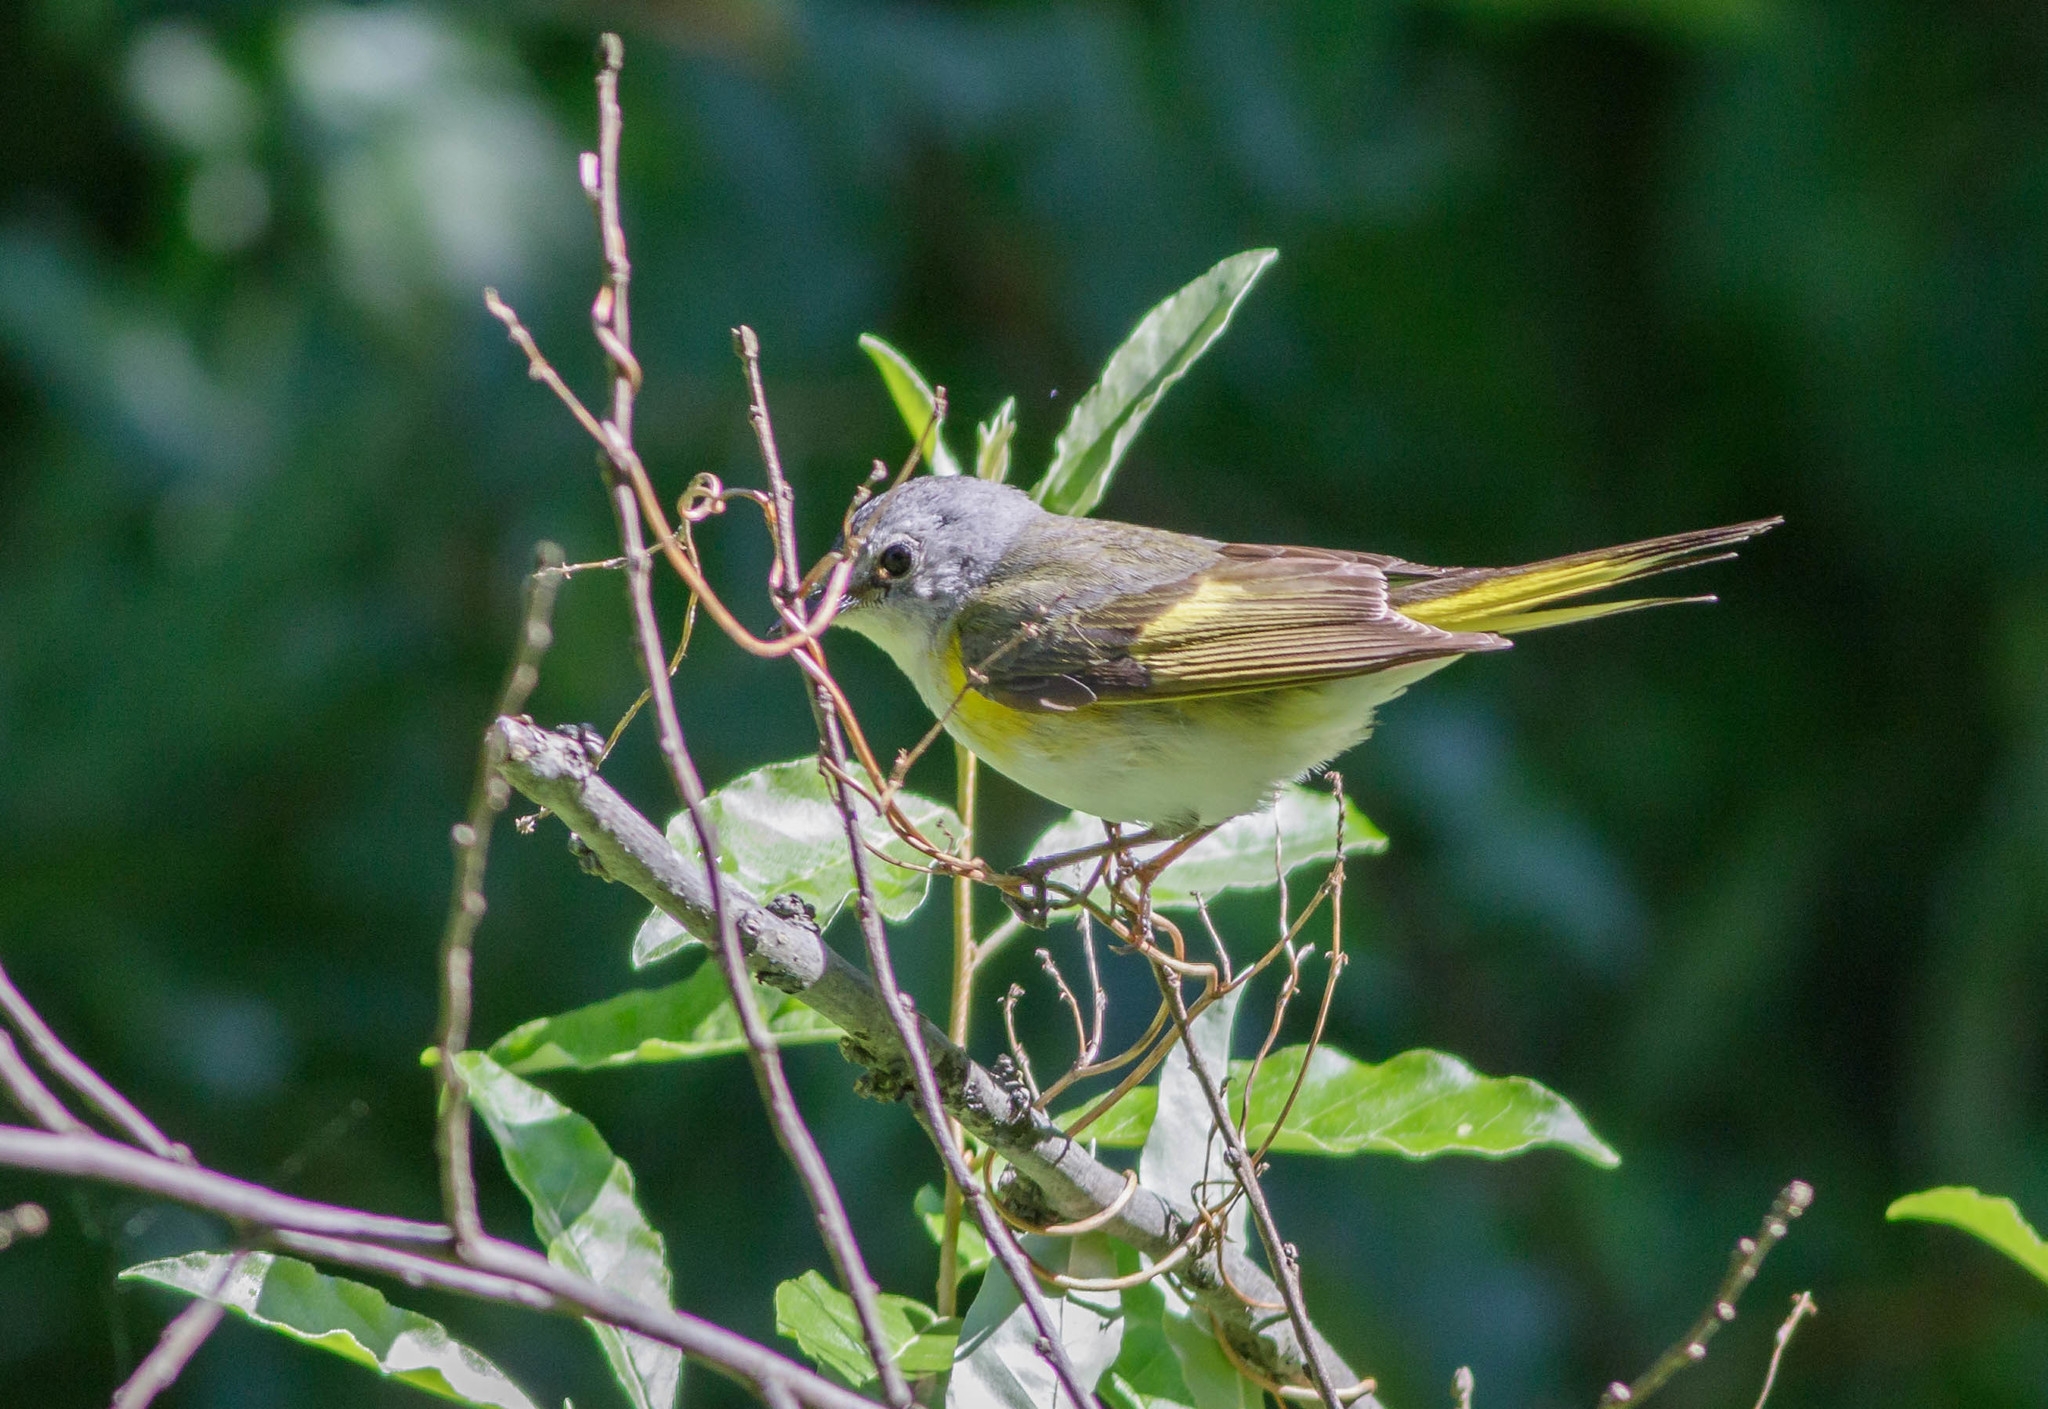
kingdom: Animalia
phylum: Chordata
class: Aves
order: Passeriformes
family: Parulidae
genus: Setophaga
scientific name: Setophaga ruticilla
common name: American redstart
